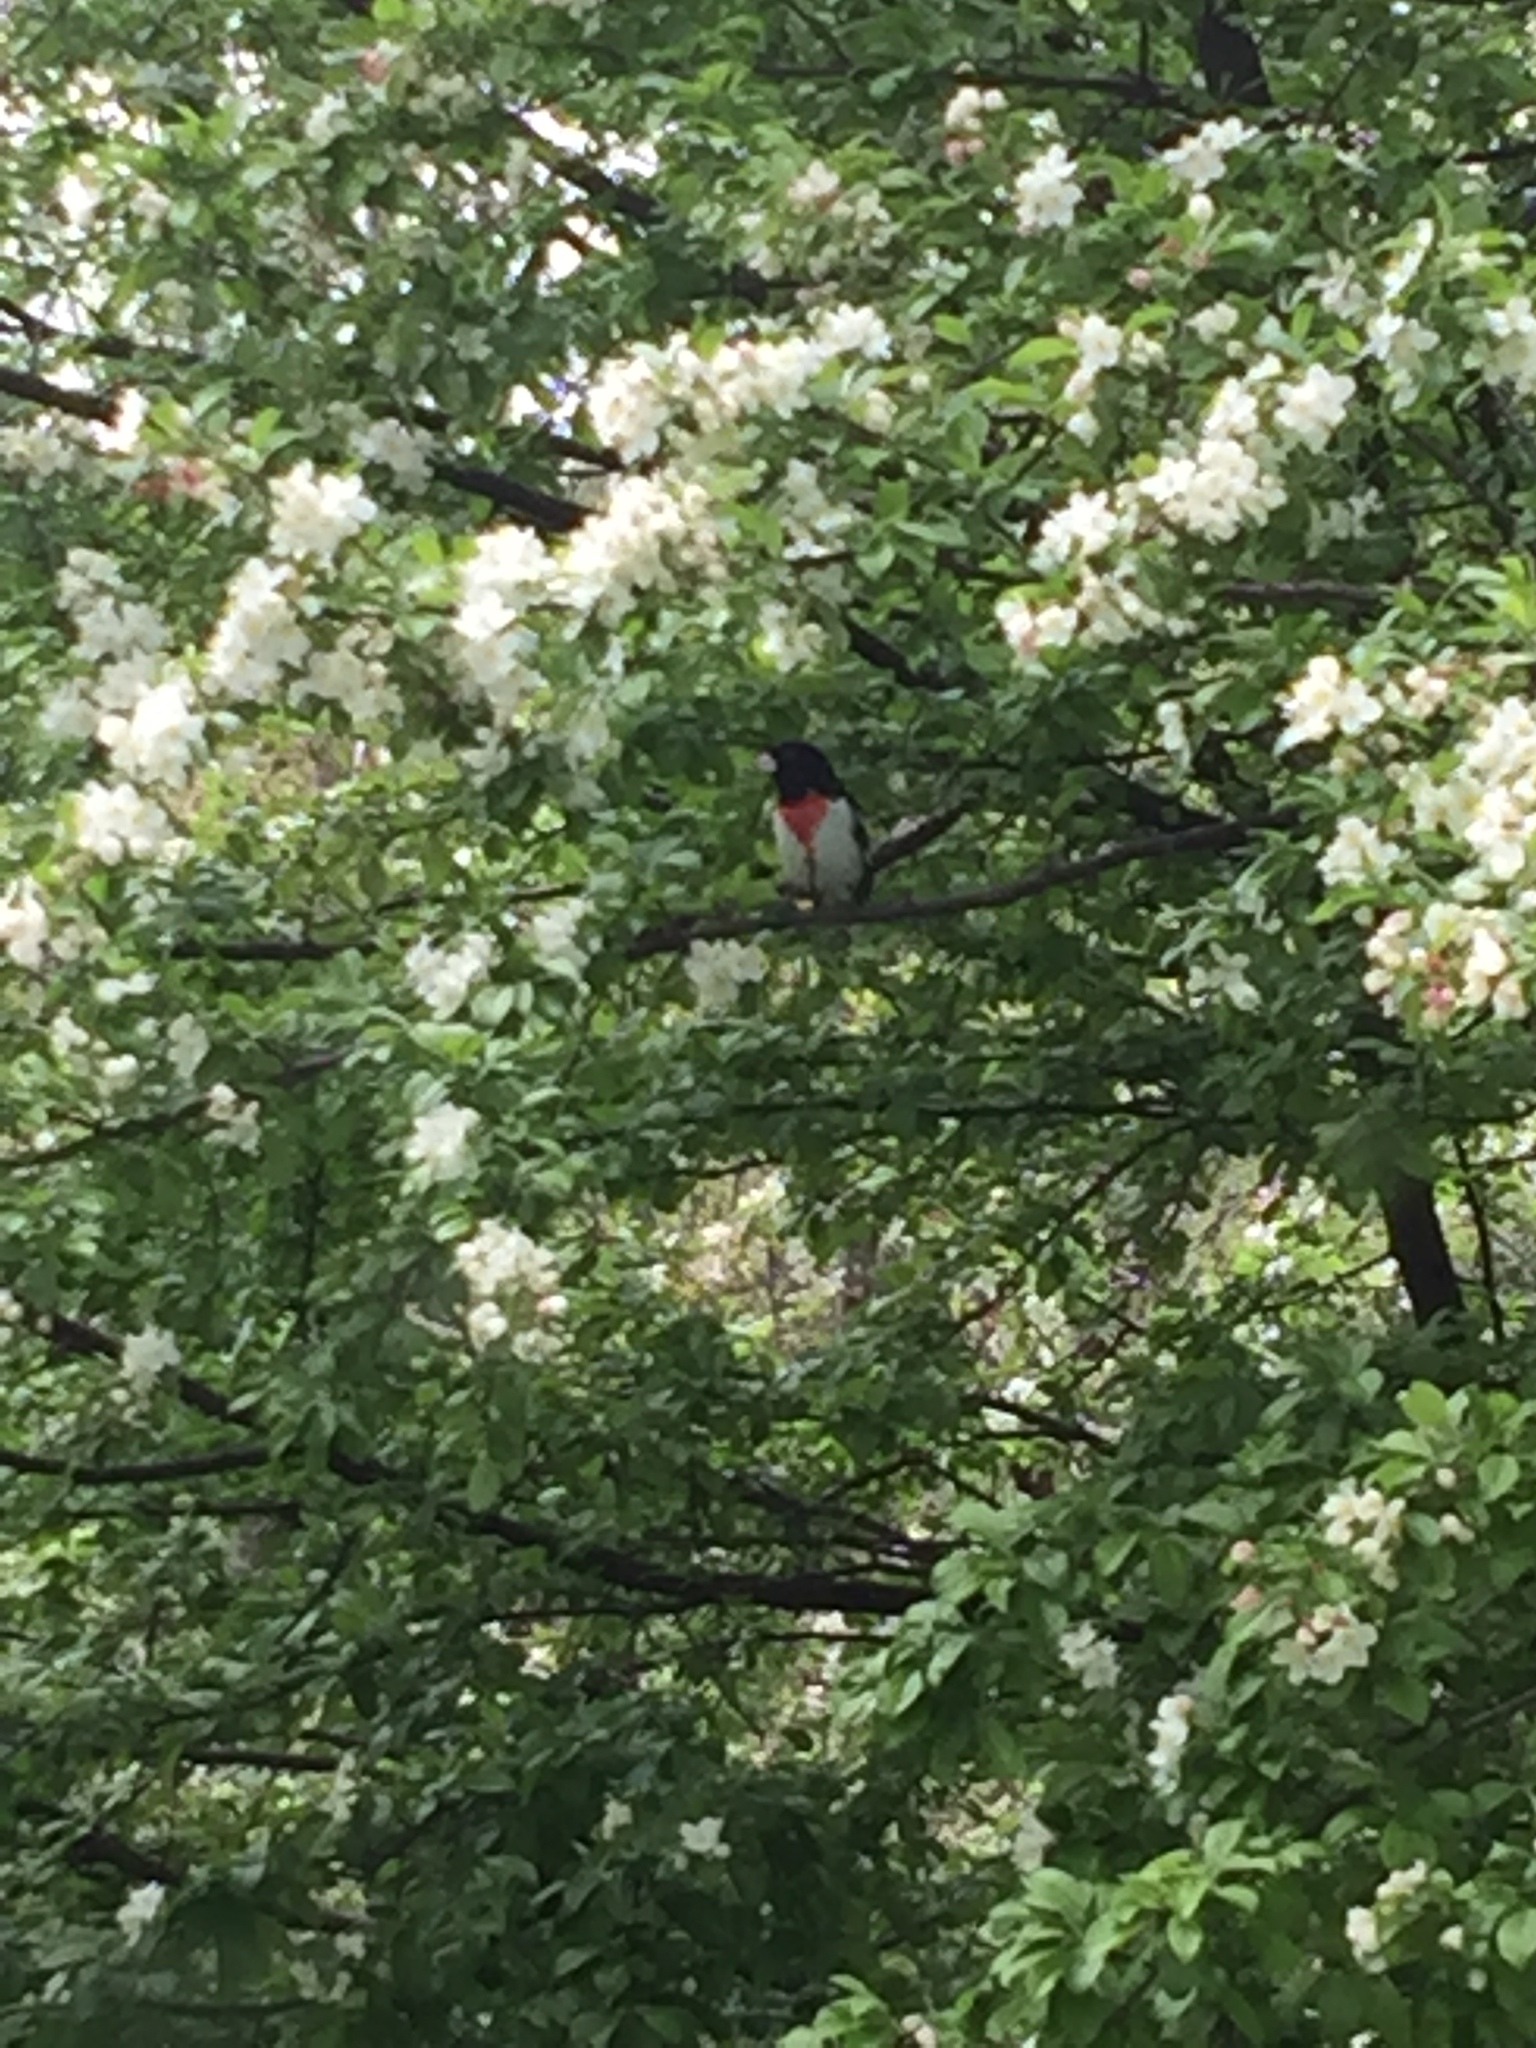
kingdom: Animalia
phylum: Chordata
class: Aves
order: Passeriformes
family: Cardinalidae
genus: Pheucticus
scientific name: Pheucticus ludovicianus
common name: Rose-breasted grosbeak
